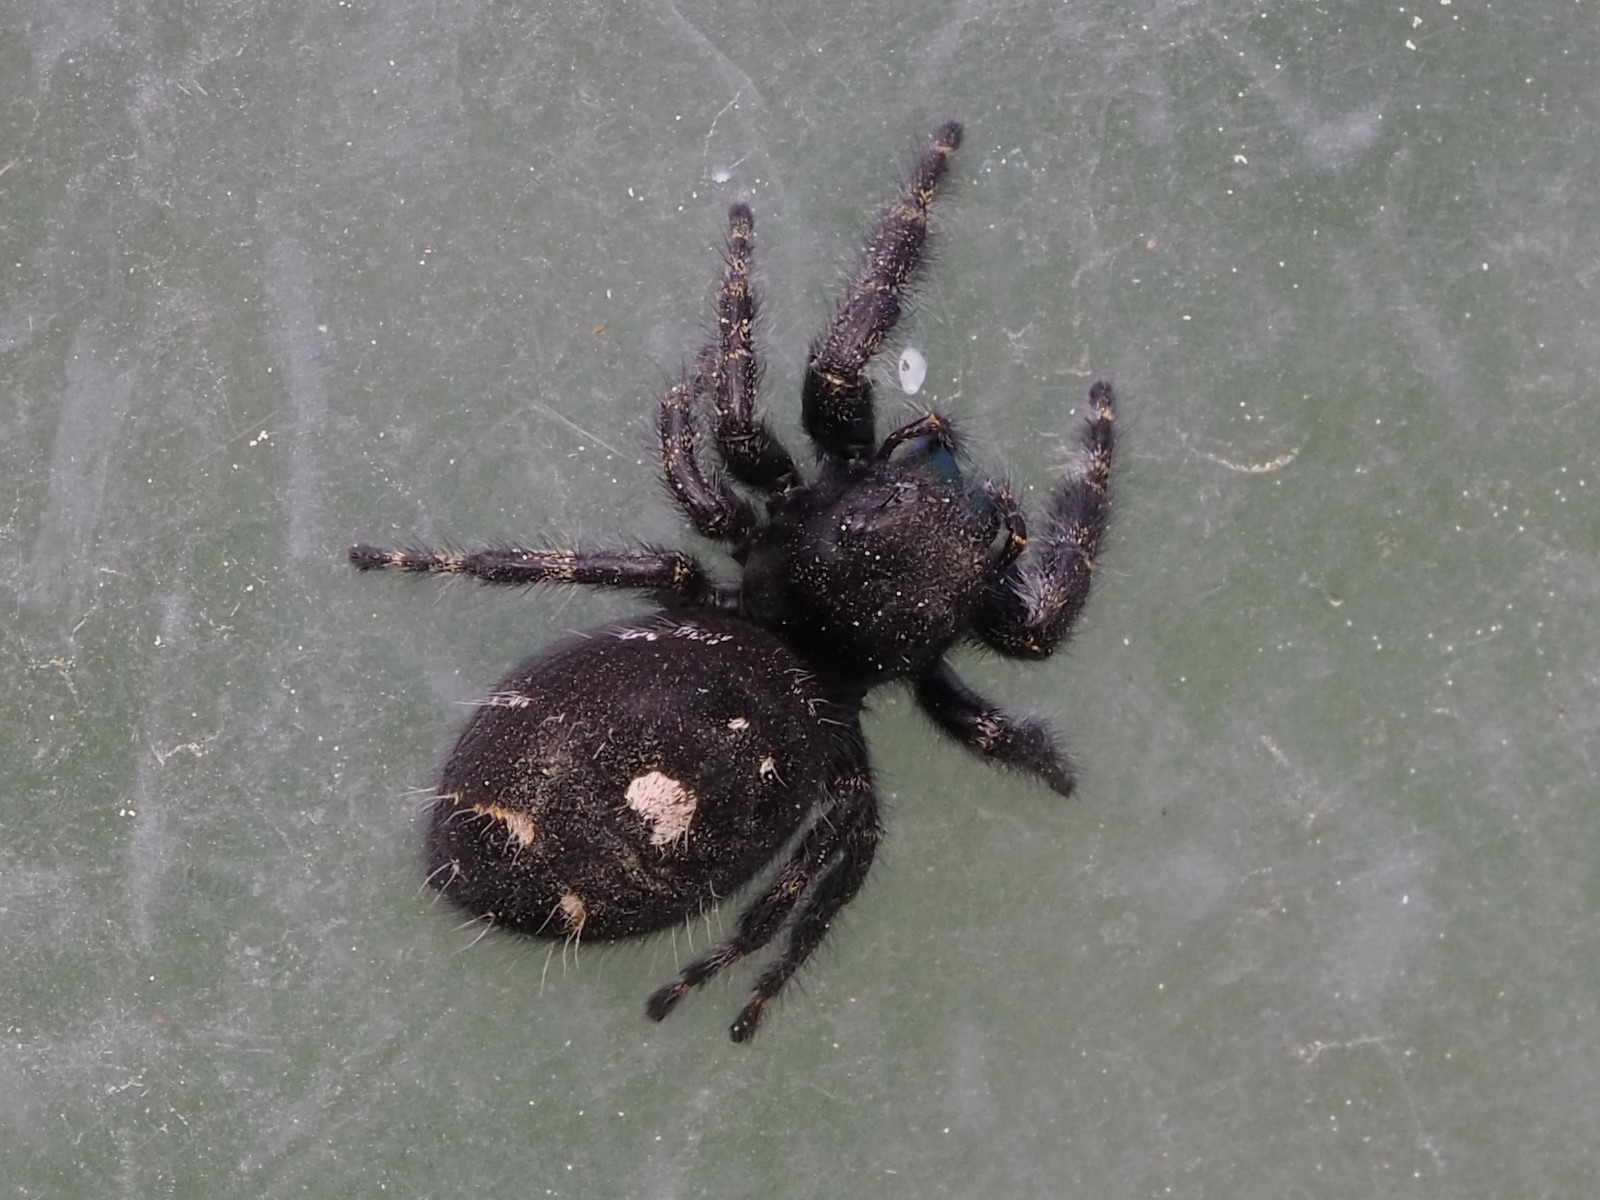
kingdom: Animalia
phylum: Arthropoda
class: Arachnida
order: Araneae
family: Salticidae
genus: Phidippus
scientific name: Phidippus audax
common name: Bold jumper
